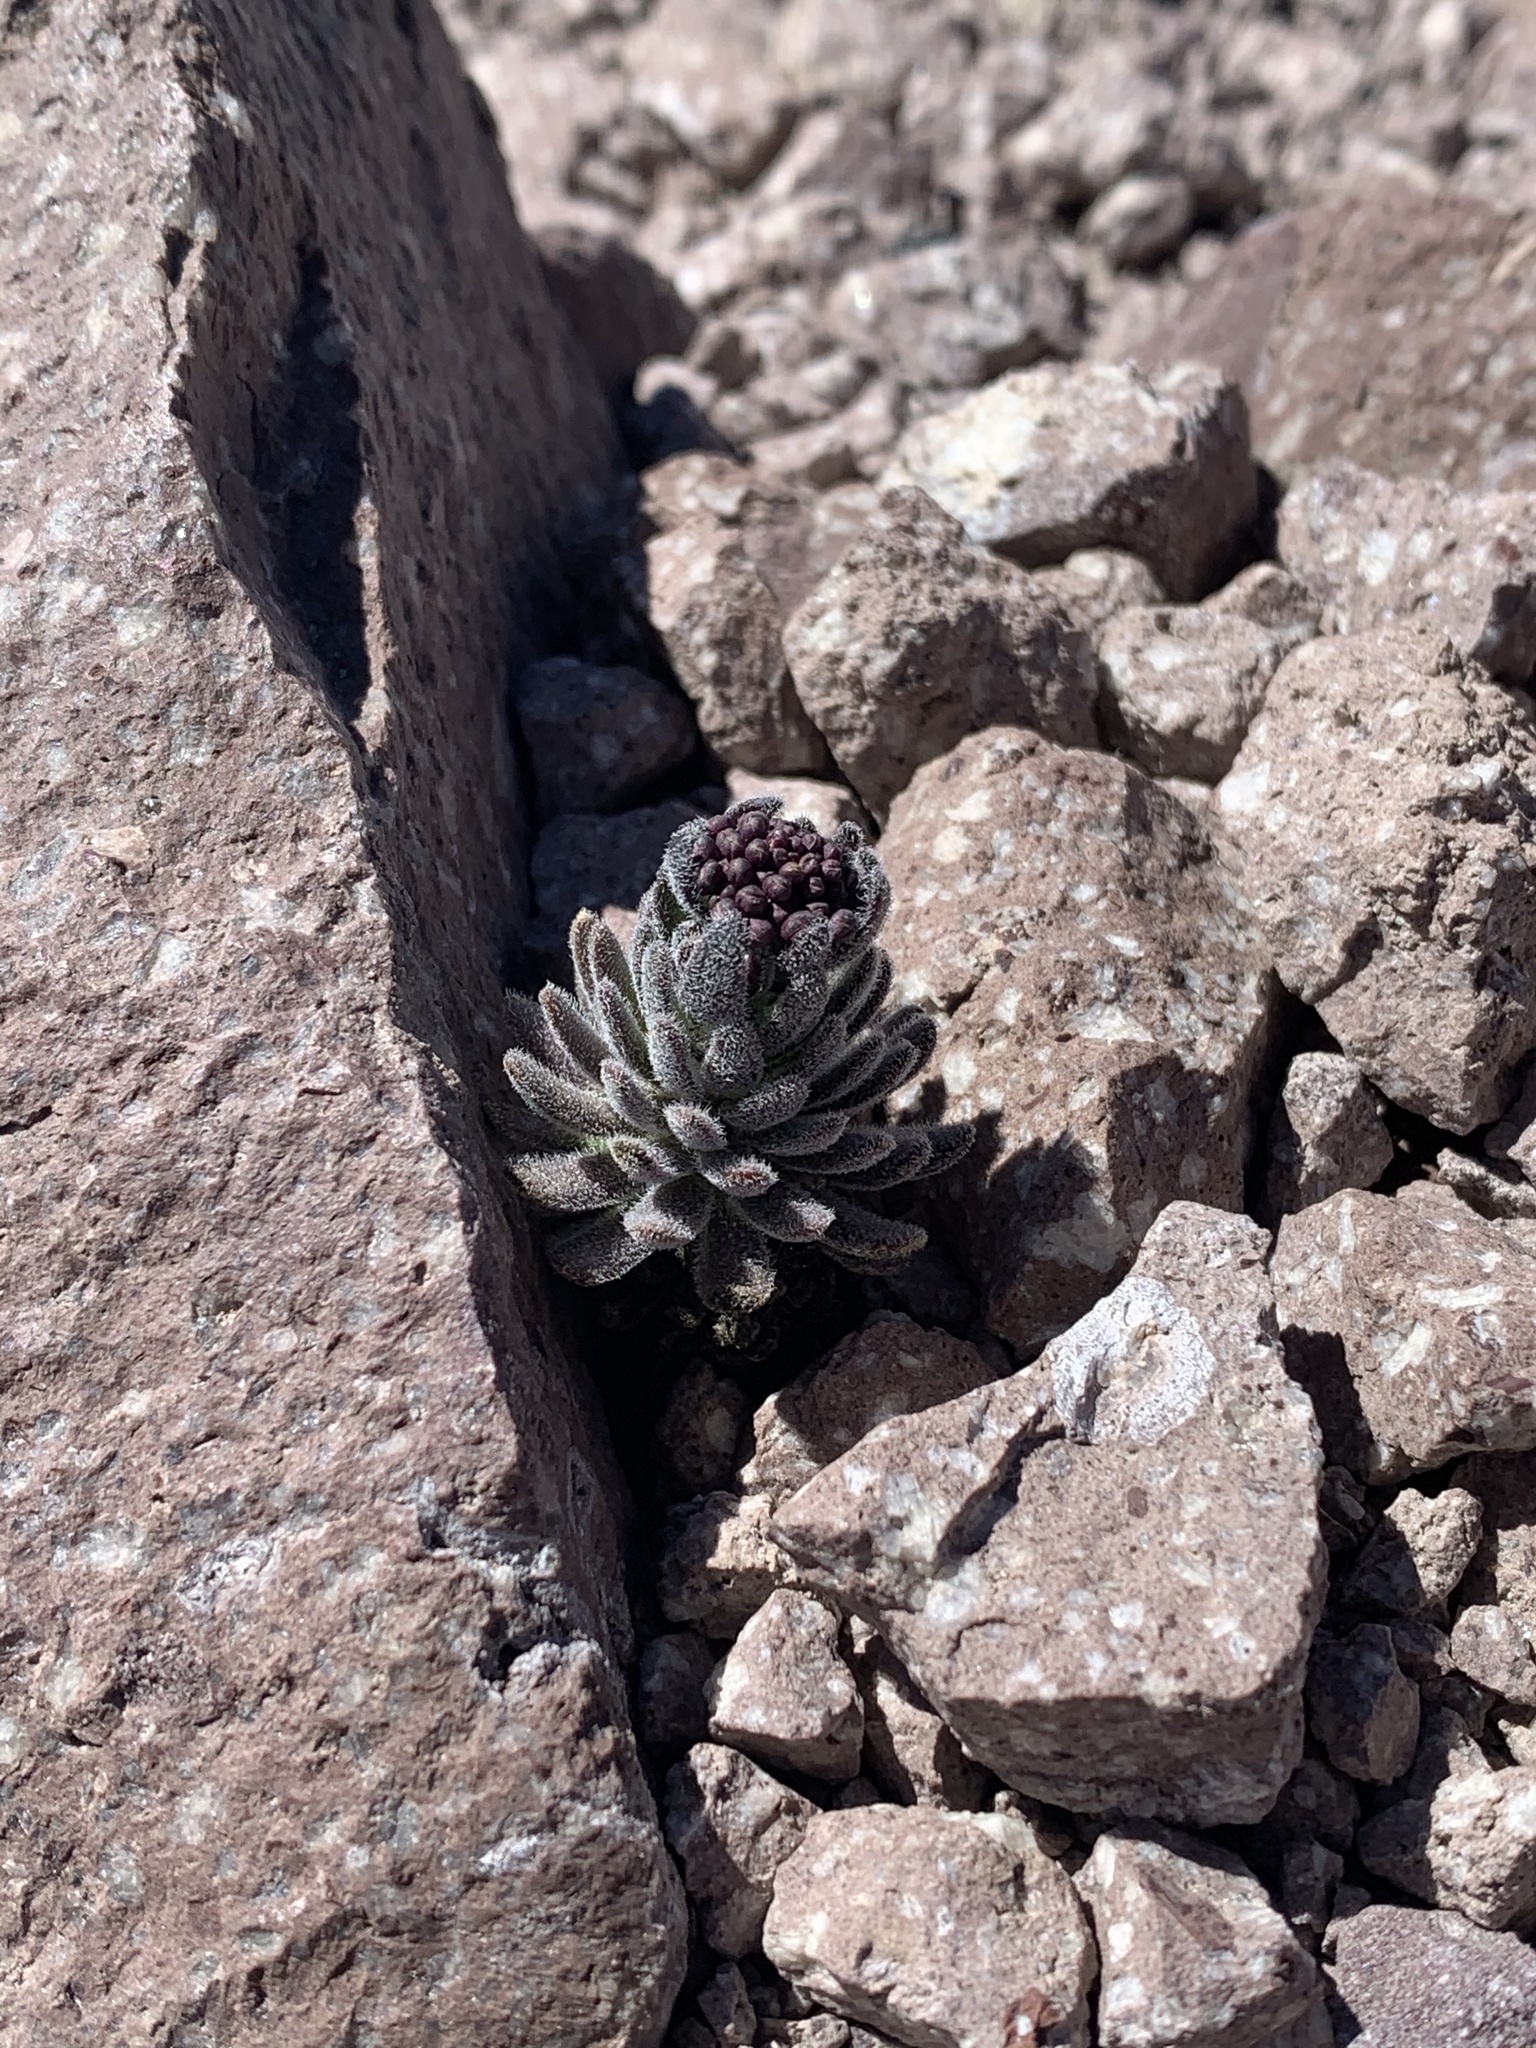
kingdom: Plantae
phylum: Tracheophyta
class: Magnoliopsida
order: Brassicales
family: Brassicaceae
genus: Draba
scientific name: Draba aureola
